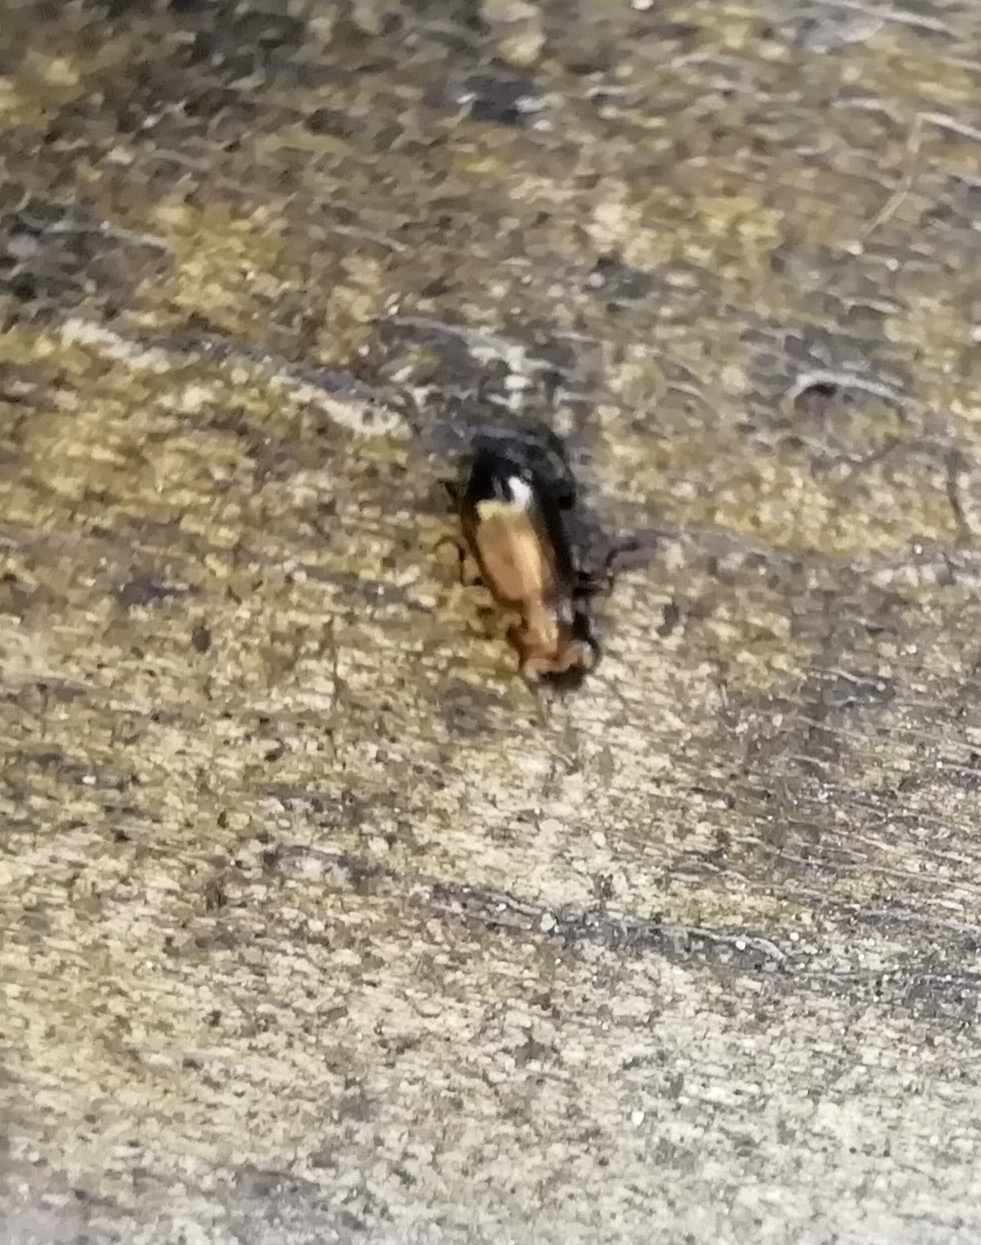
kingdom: Animalia
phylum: Arthropoda
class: Insecta
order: Coleoptera
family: Carabidae
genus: Notiophilus
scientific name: Notiophilus
